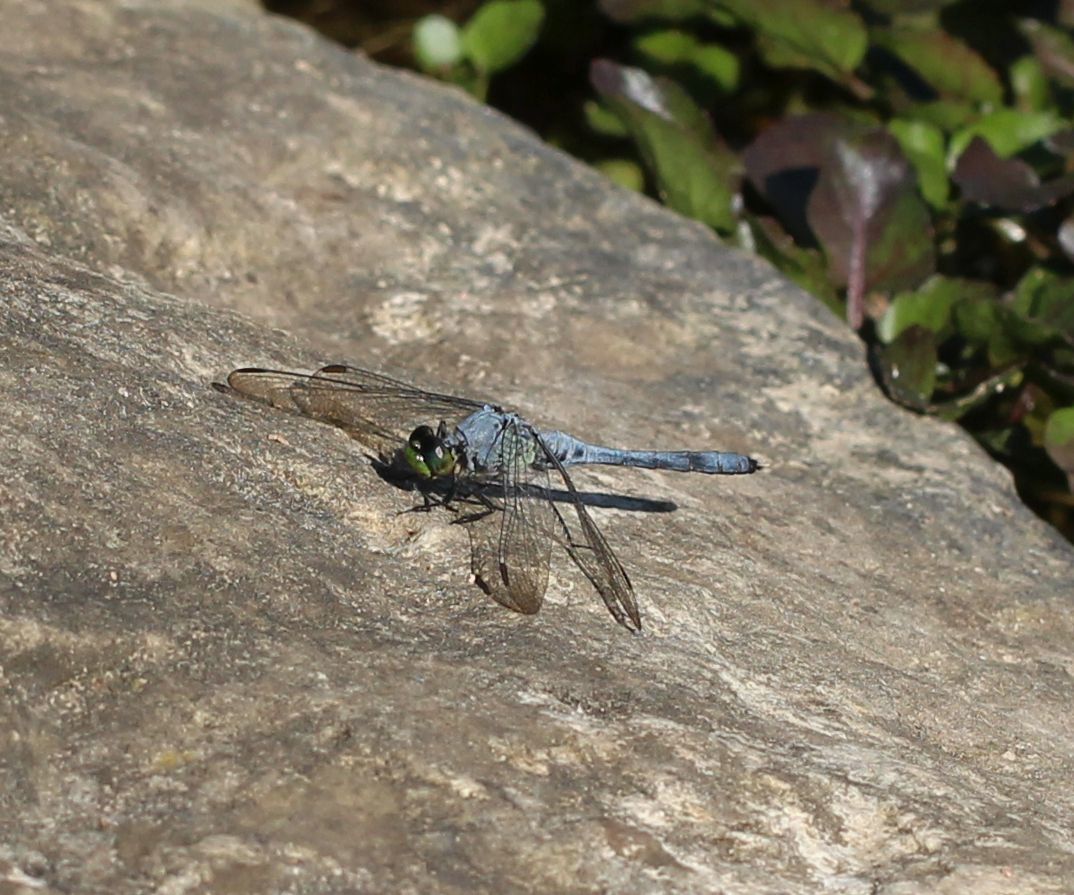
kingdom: Animalia
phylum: Arthropoda
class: Insecta
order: Odonata
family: Libellulidae
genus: Erythemis
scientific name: Erythemis simplicicollis
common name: Eastern pondhawk
